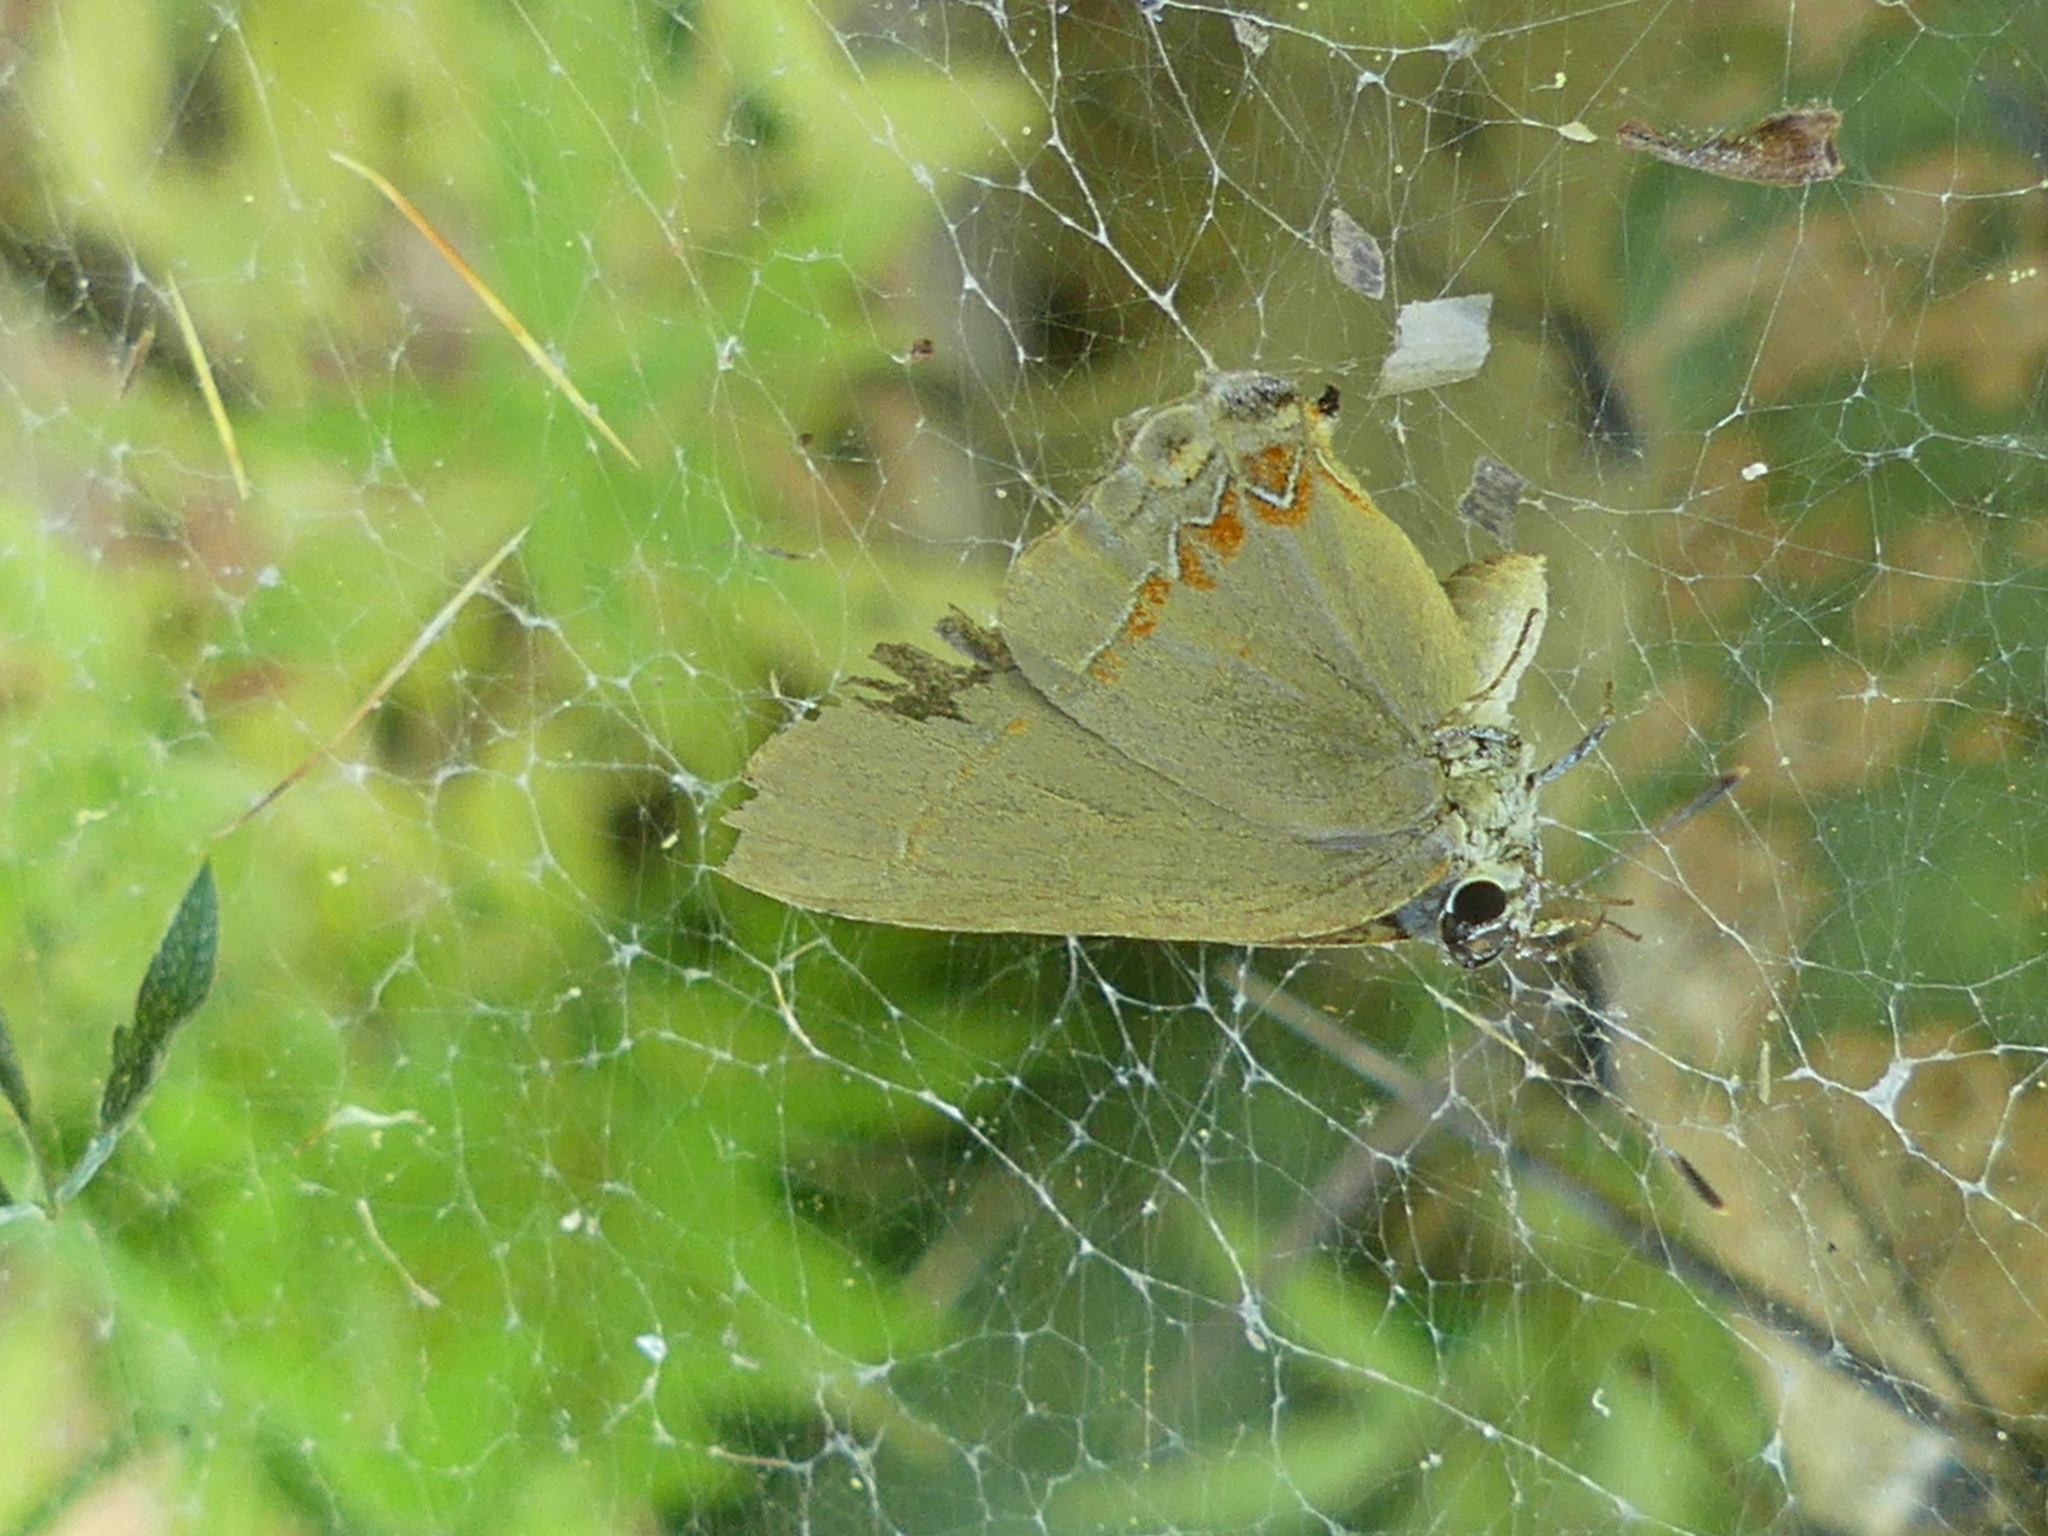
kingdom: Animalia
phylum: Arthropoda
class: Insecta
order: Lepidoptera
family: Lycaenidae
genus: Calycopis
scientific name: Calycopis isobeon
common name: Dusky-blue groundstreak
